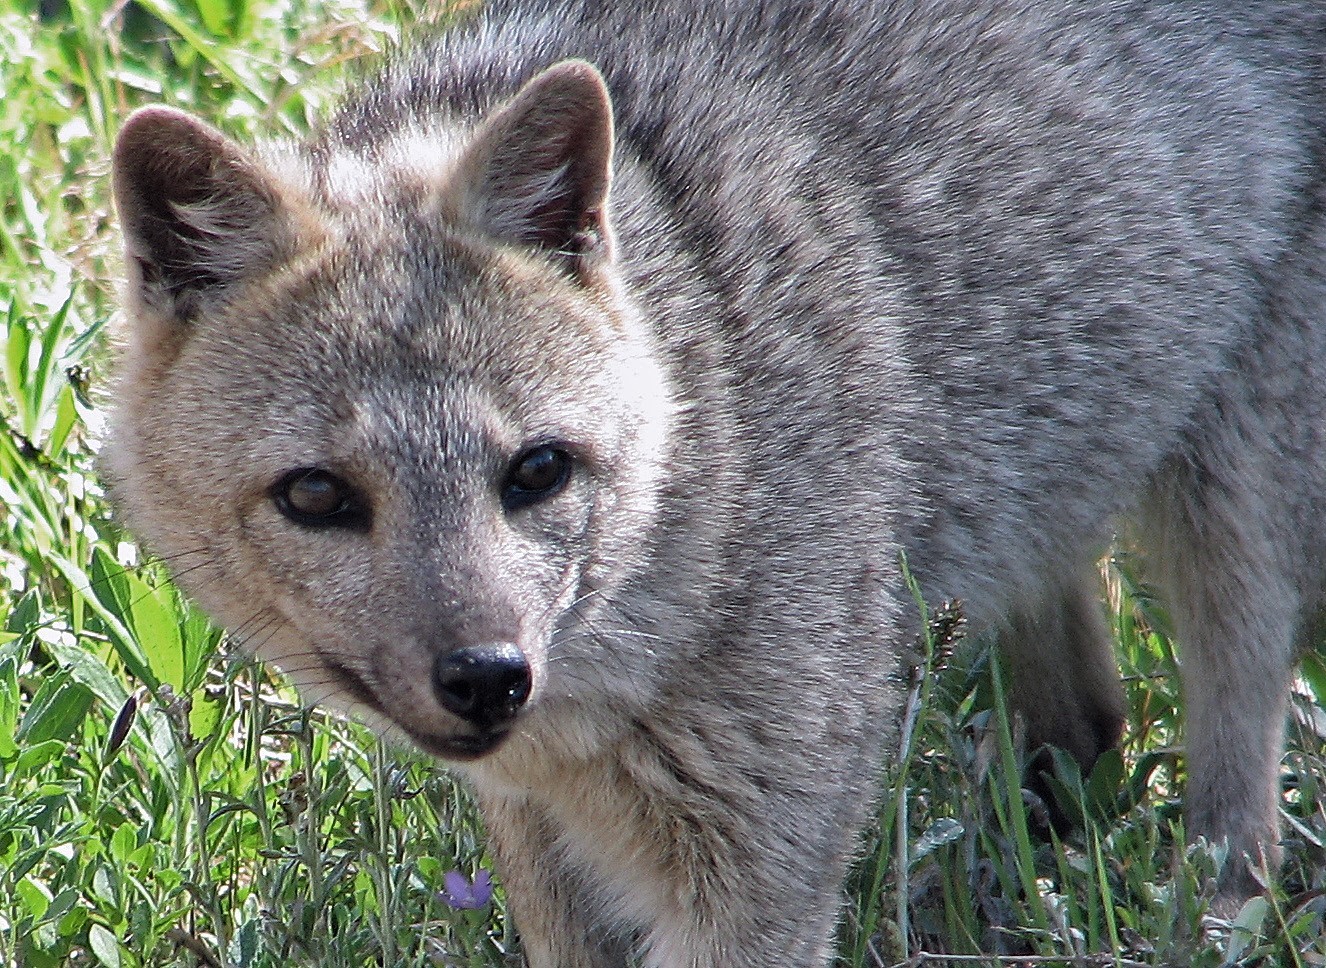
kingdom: Animalia
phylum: Chordata
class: Mammalia
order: Carnivora
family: Canidae
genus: Cerdocyon
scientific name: Cerdocyon thous
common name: Crab-eating fox
